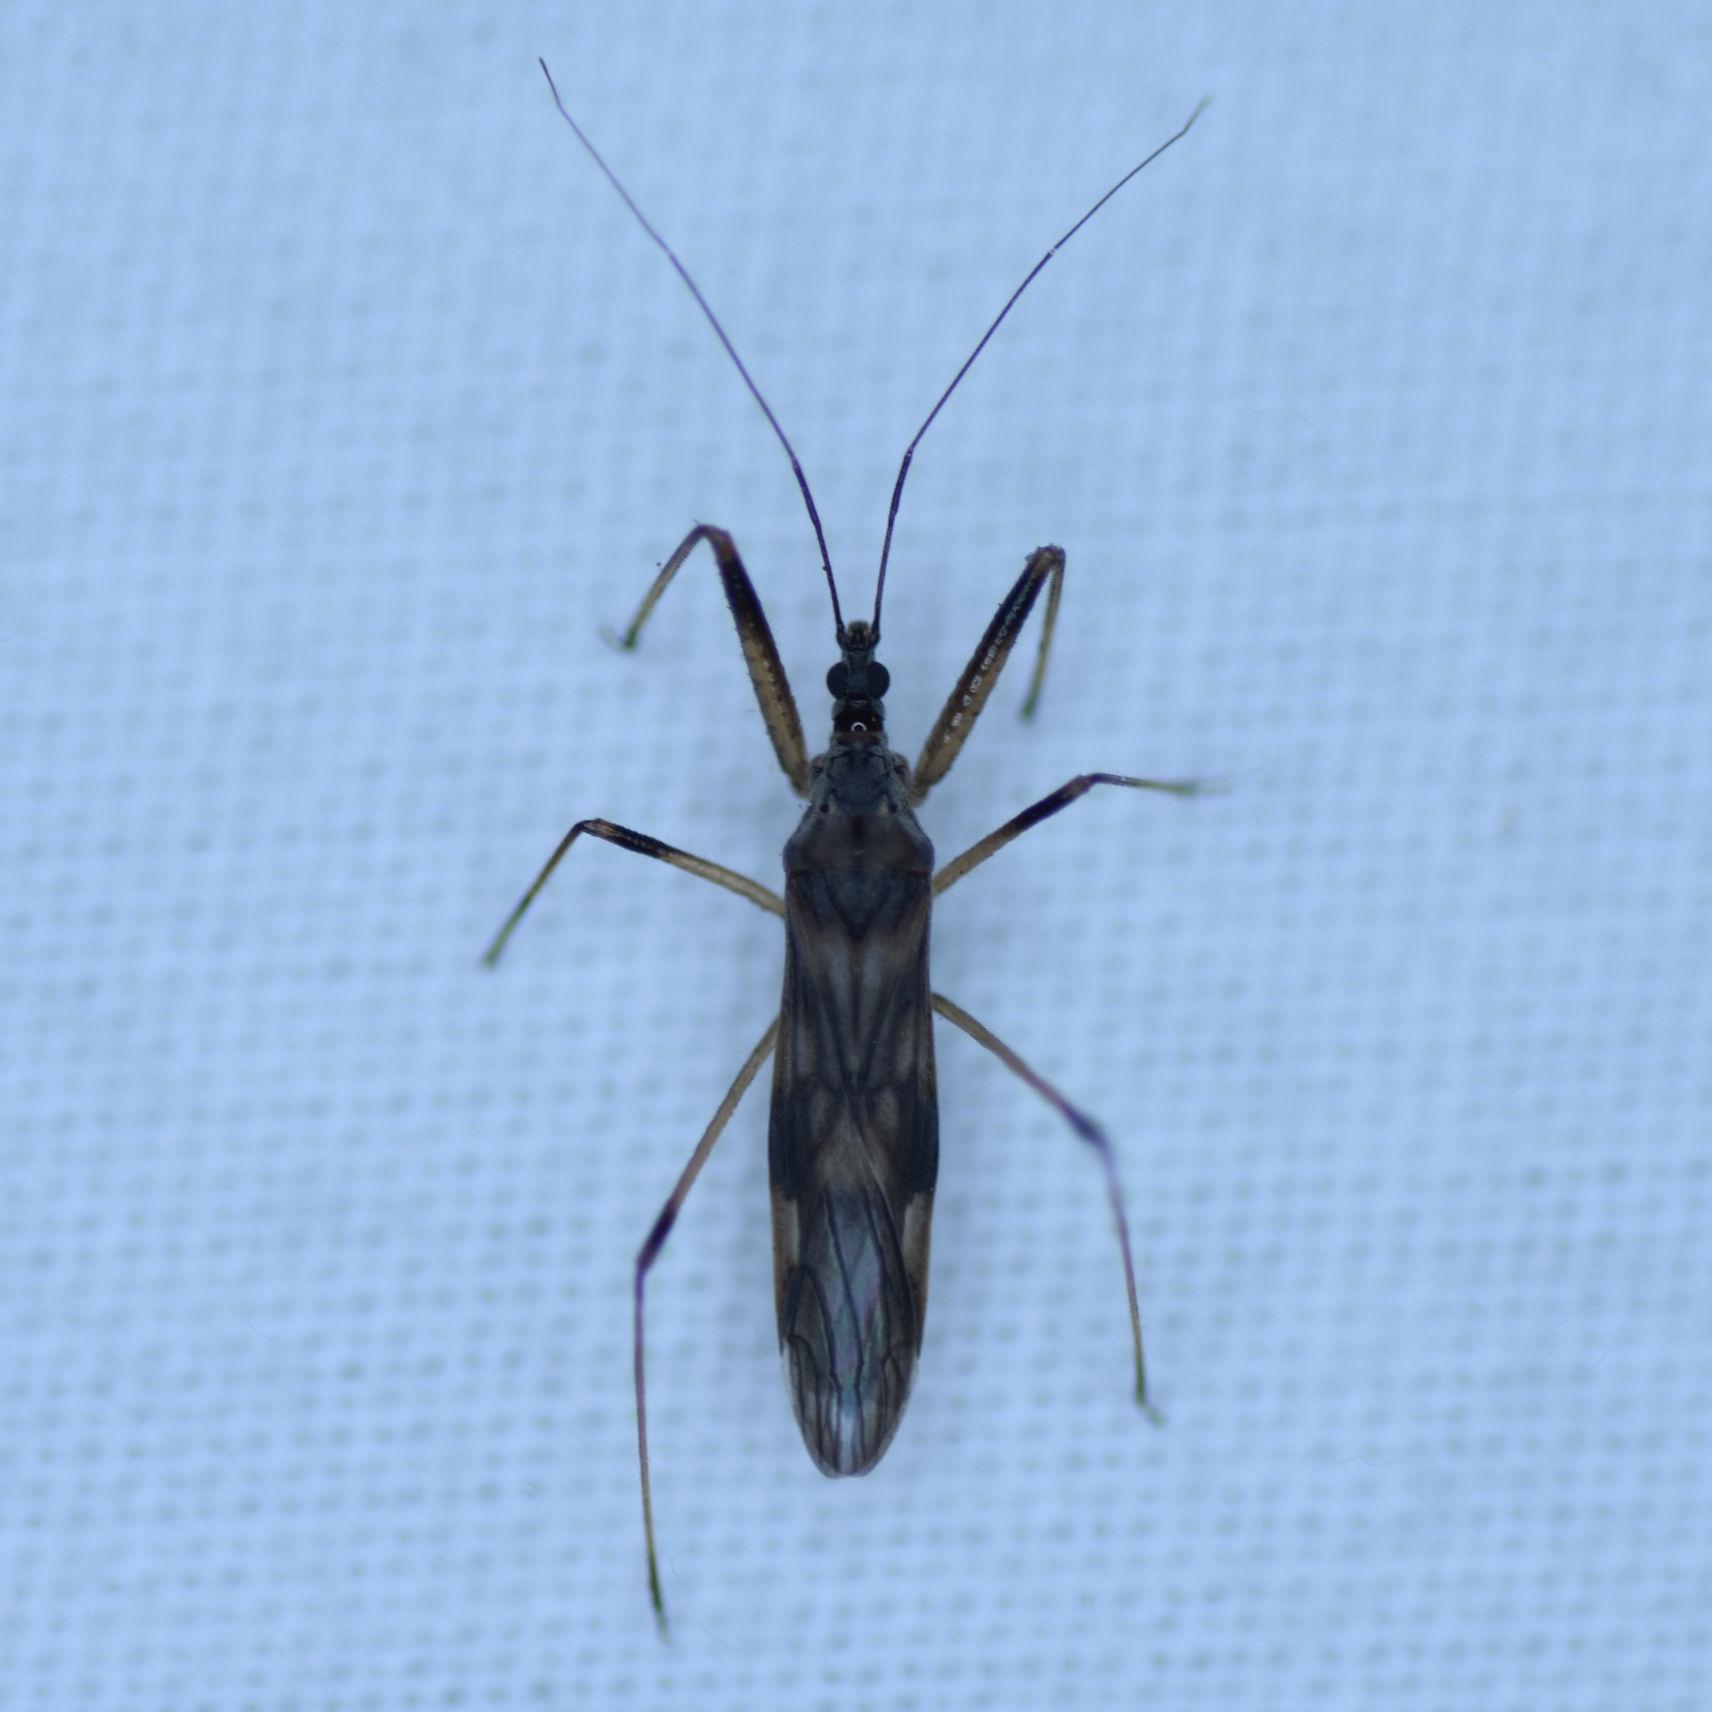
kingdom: Animalia
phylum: Arthropoda
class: Insecta
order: Hemiptera
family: Nabidae
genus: Metatropiphorus
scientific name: Metatropiphorus belfragii
